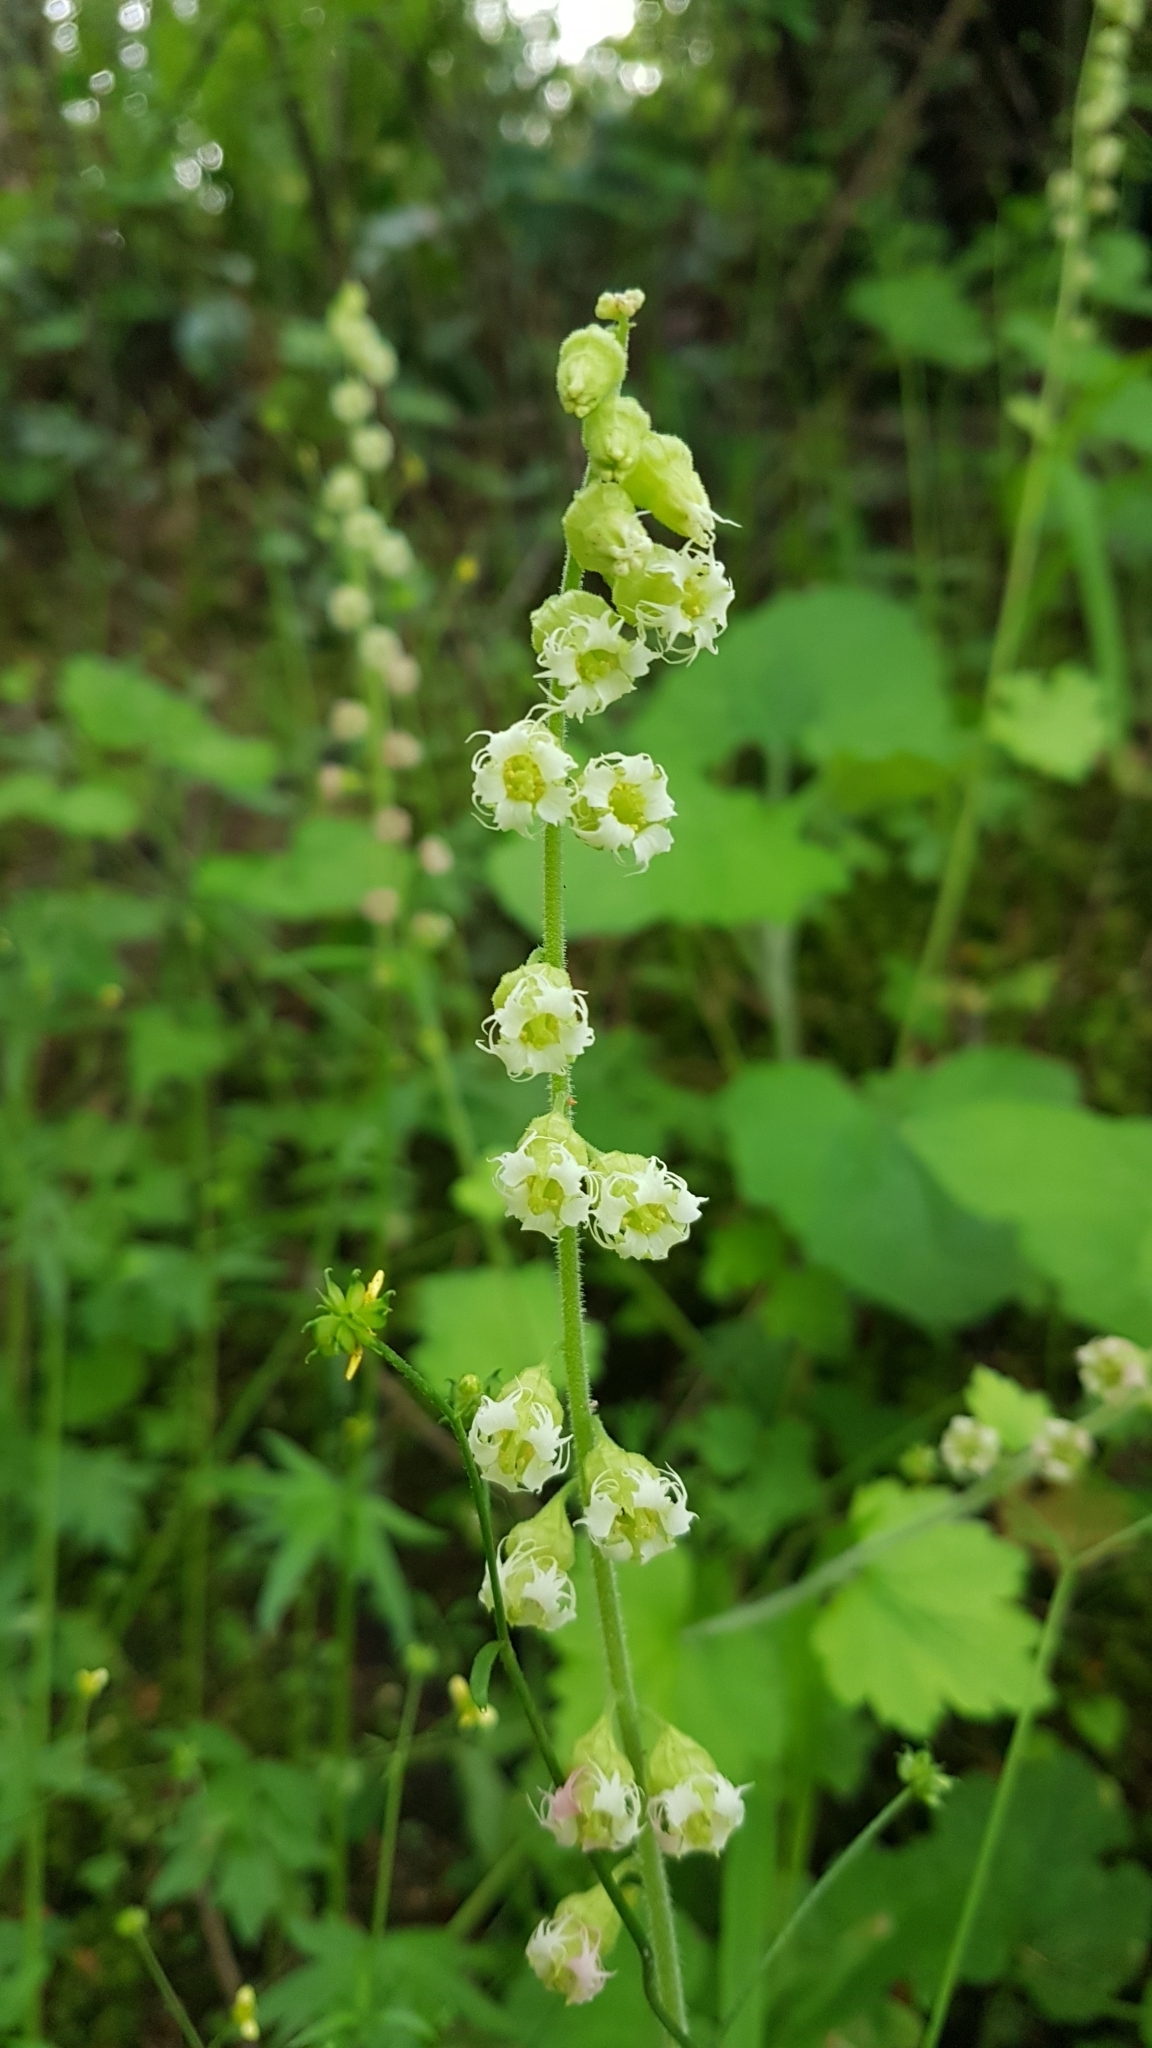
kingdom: Plantae
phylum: Tracheophyta
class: Magnoliopsida
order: Saxifragales
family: Saxifragaceae
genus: Tellima
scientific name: Tellima grandiflora
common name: Fringecups
